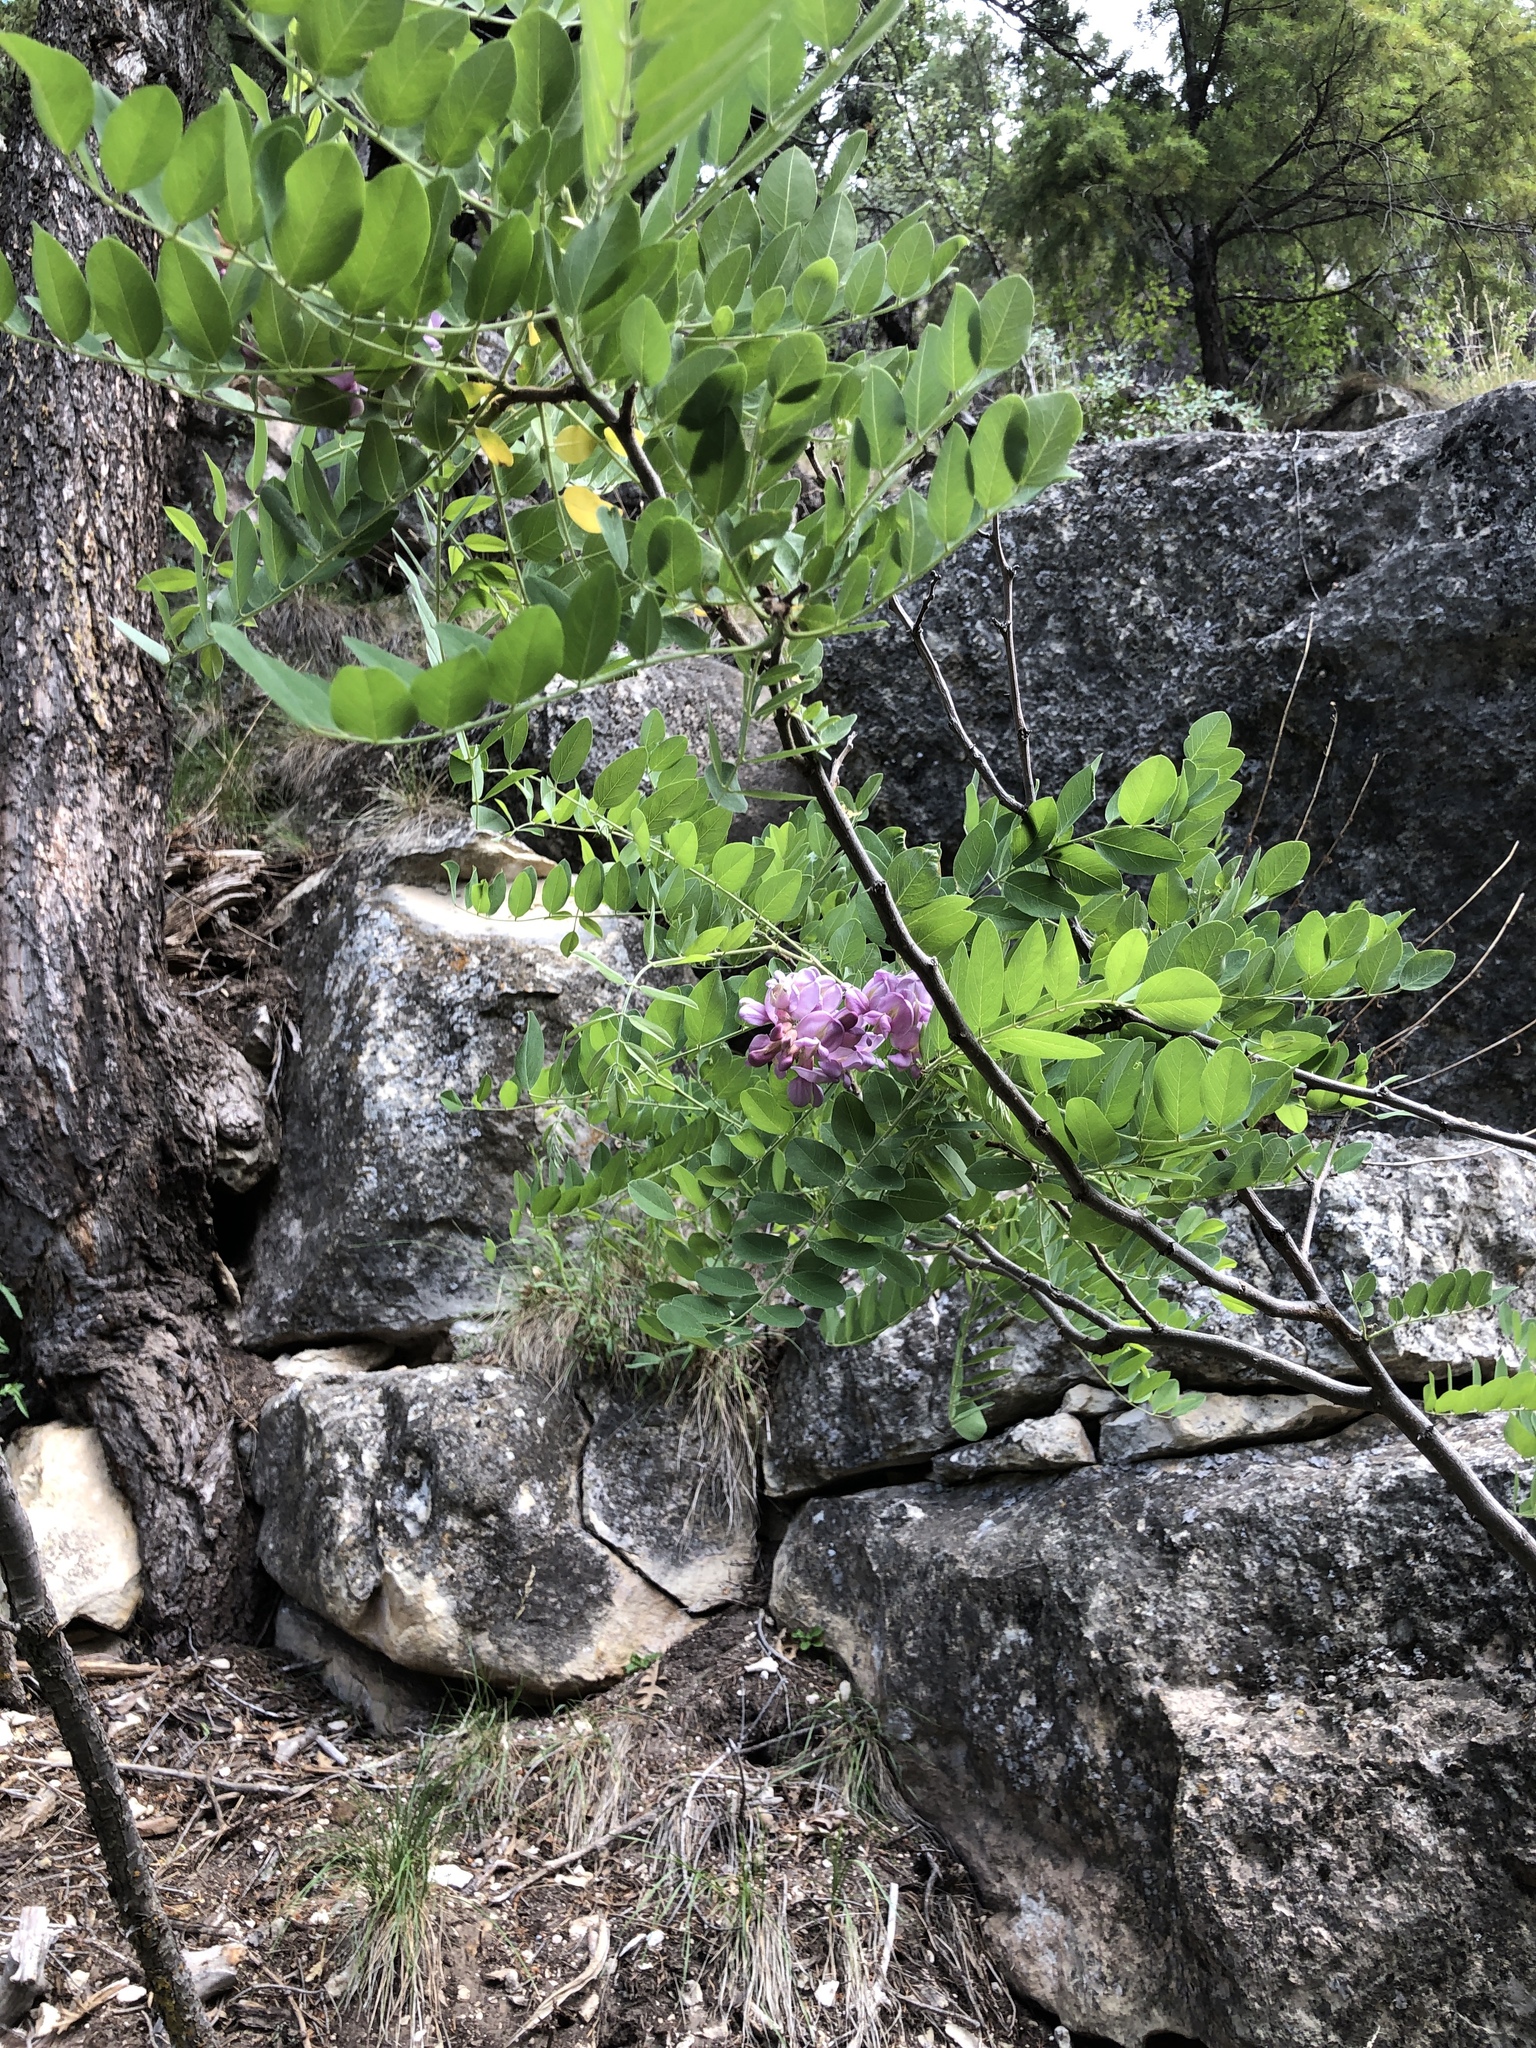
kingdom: Plantae
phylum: Tracheophyta
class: Magnoliopsida
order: Fabales
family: Fabaceae
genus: Robinia
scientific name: Robinia neomexicana
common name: New mexico locust
